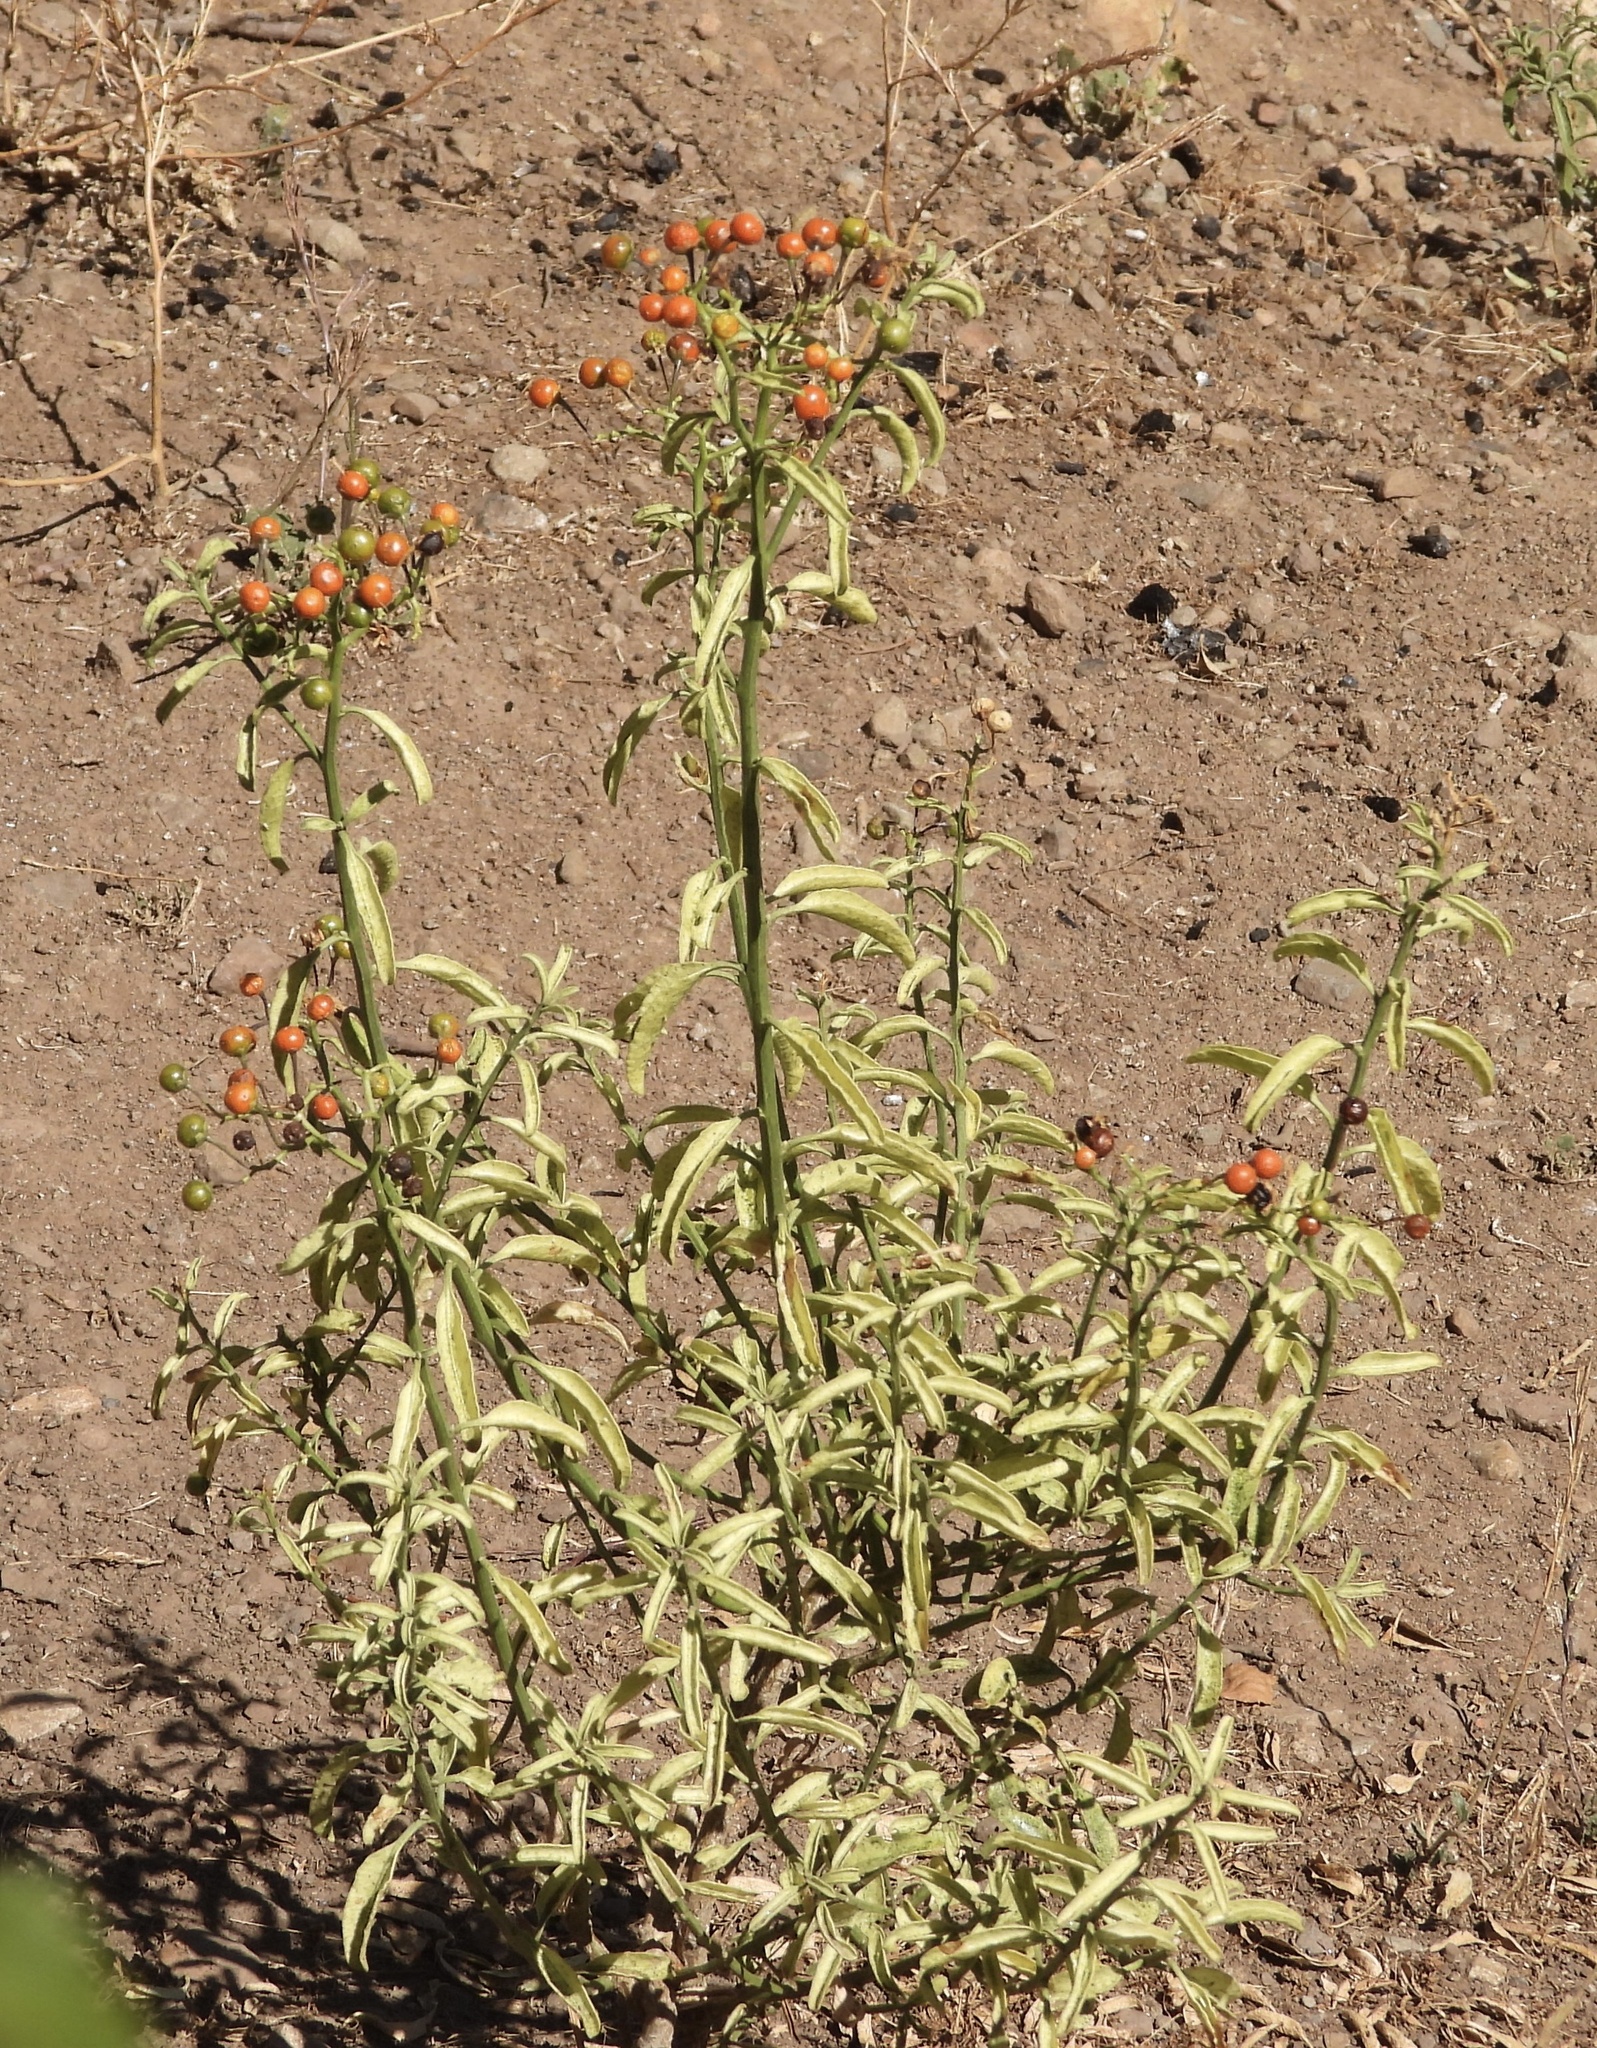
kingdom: Plantae
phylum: Tracheophyta
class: Magnoliopsida
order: Solanales
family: Solanaceae
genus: Solanum
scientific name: Solanum crispum
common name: Chilean nightshade
